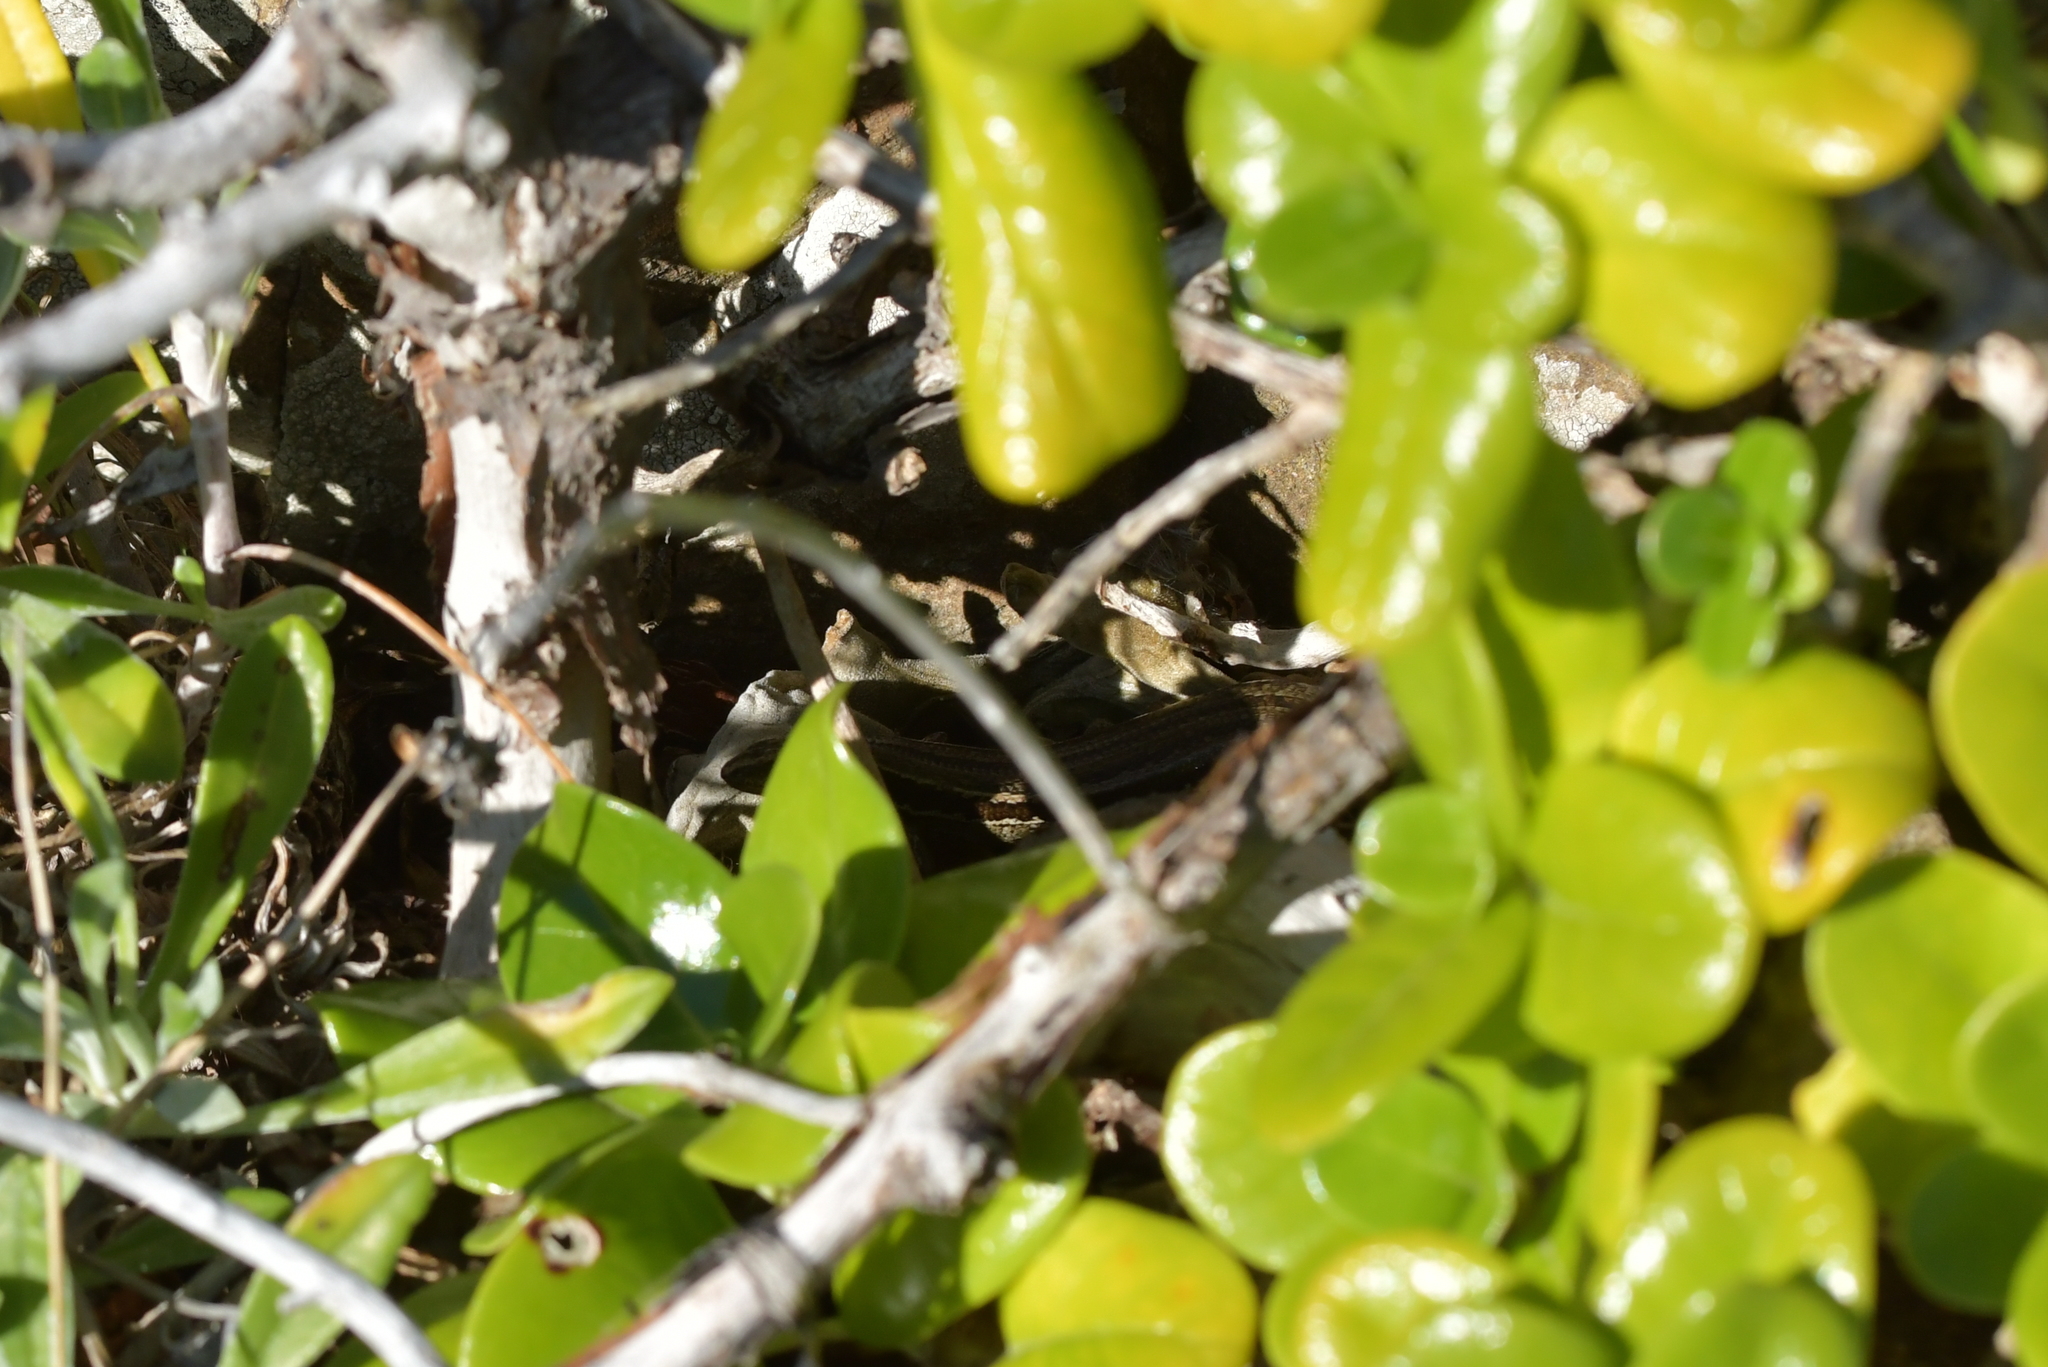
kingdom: Animalia
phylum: Chordata
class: Squamata
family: Scincidae
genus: Oligosoma
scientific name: Oligosoma polychroma
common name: Common new zealand skink
